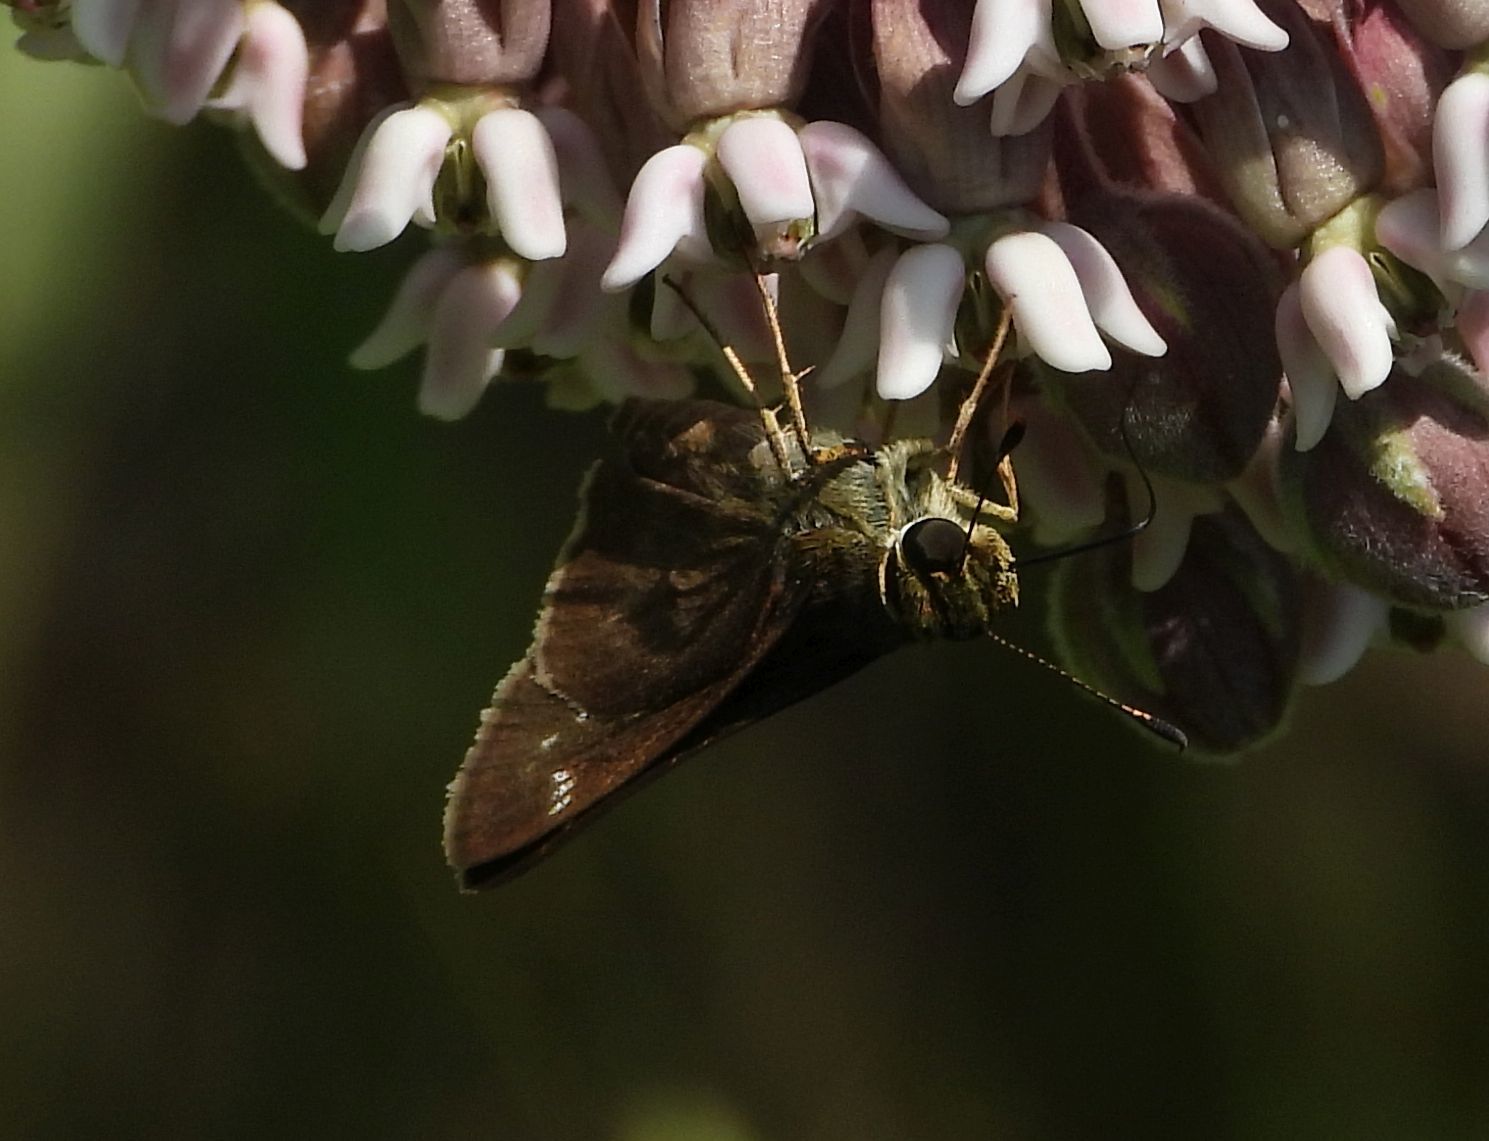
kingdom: Animalia
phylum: Arthropoda
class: Insecta
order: Lepidoptera
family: Hesperiidae
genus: Vernia
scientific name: Vernia verna
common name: Little glassywing
